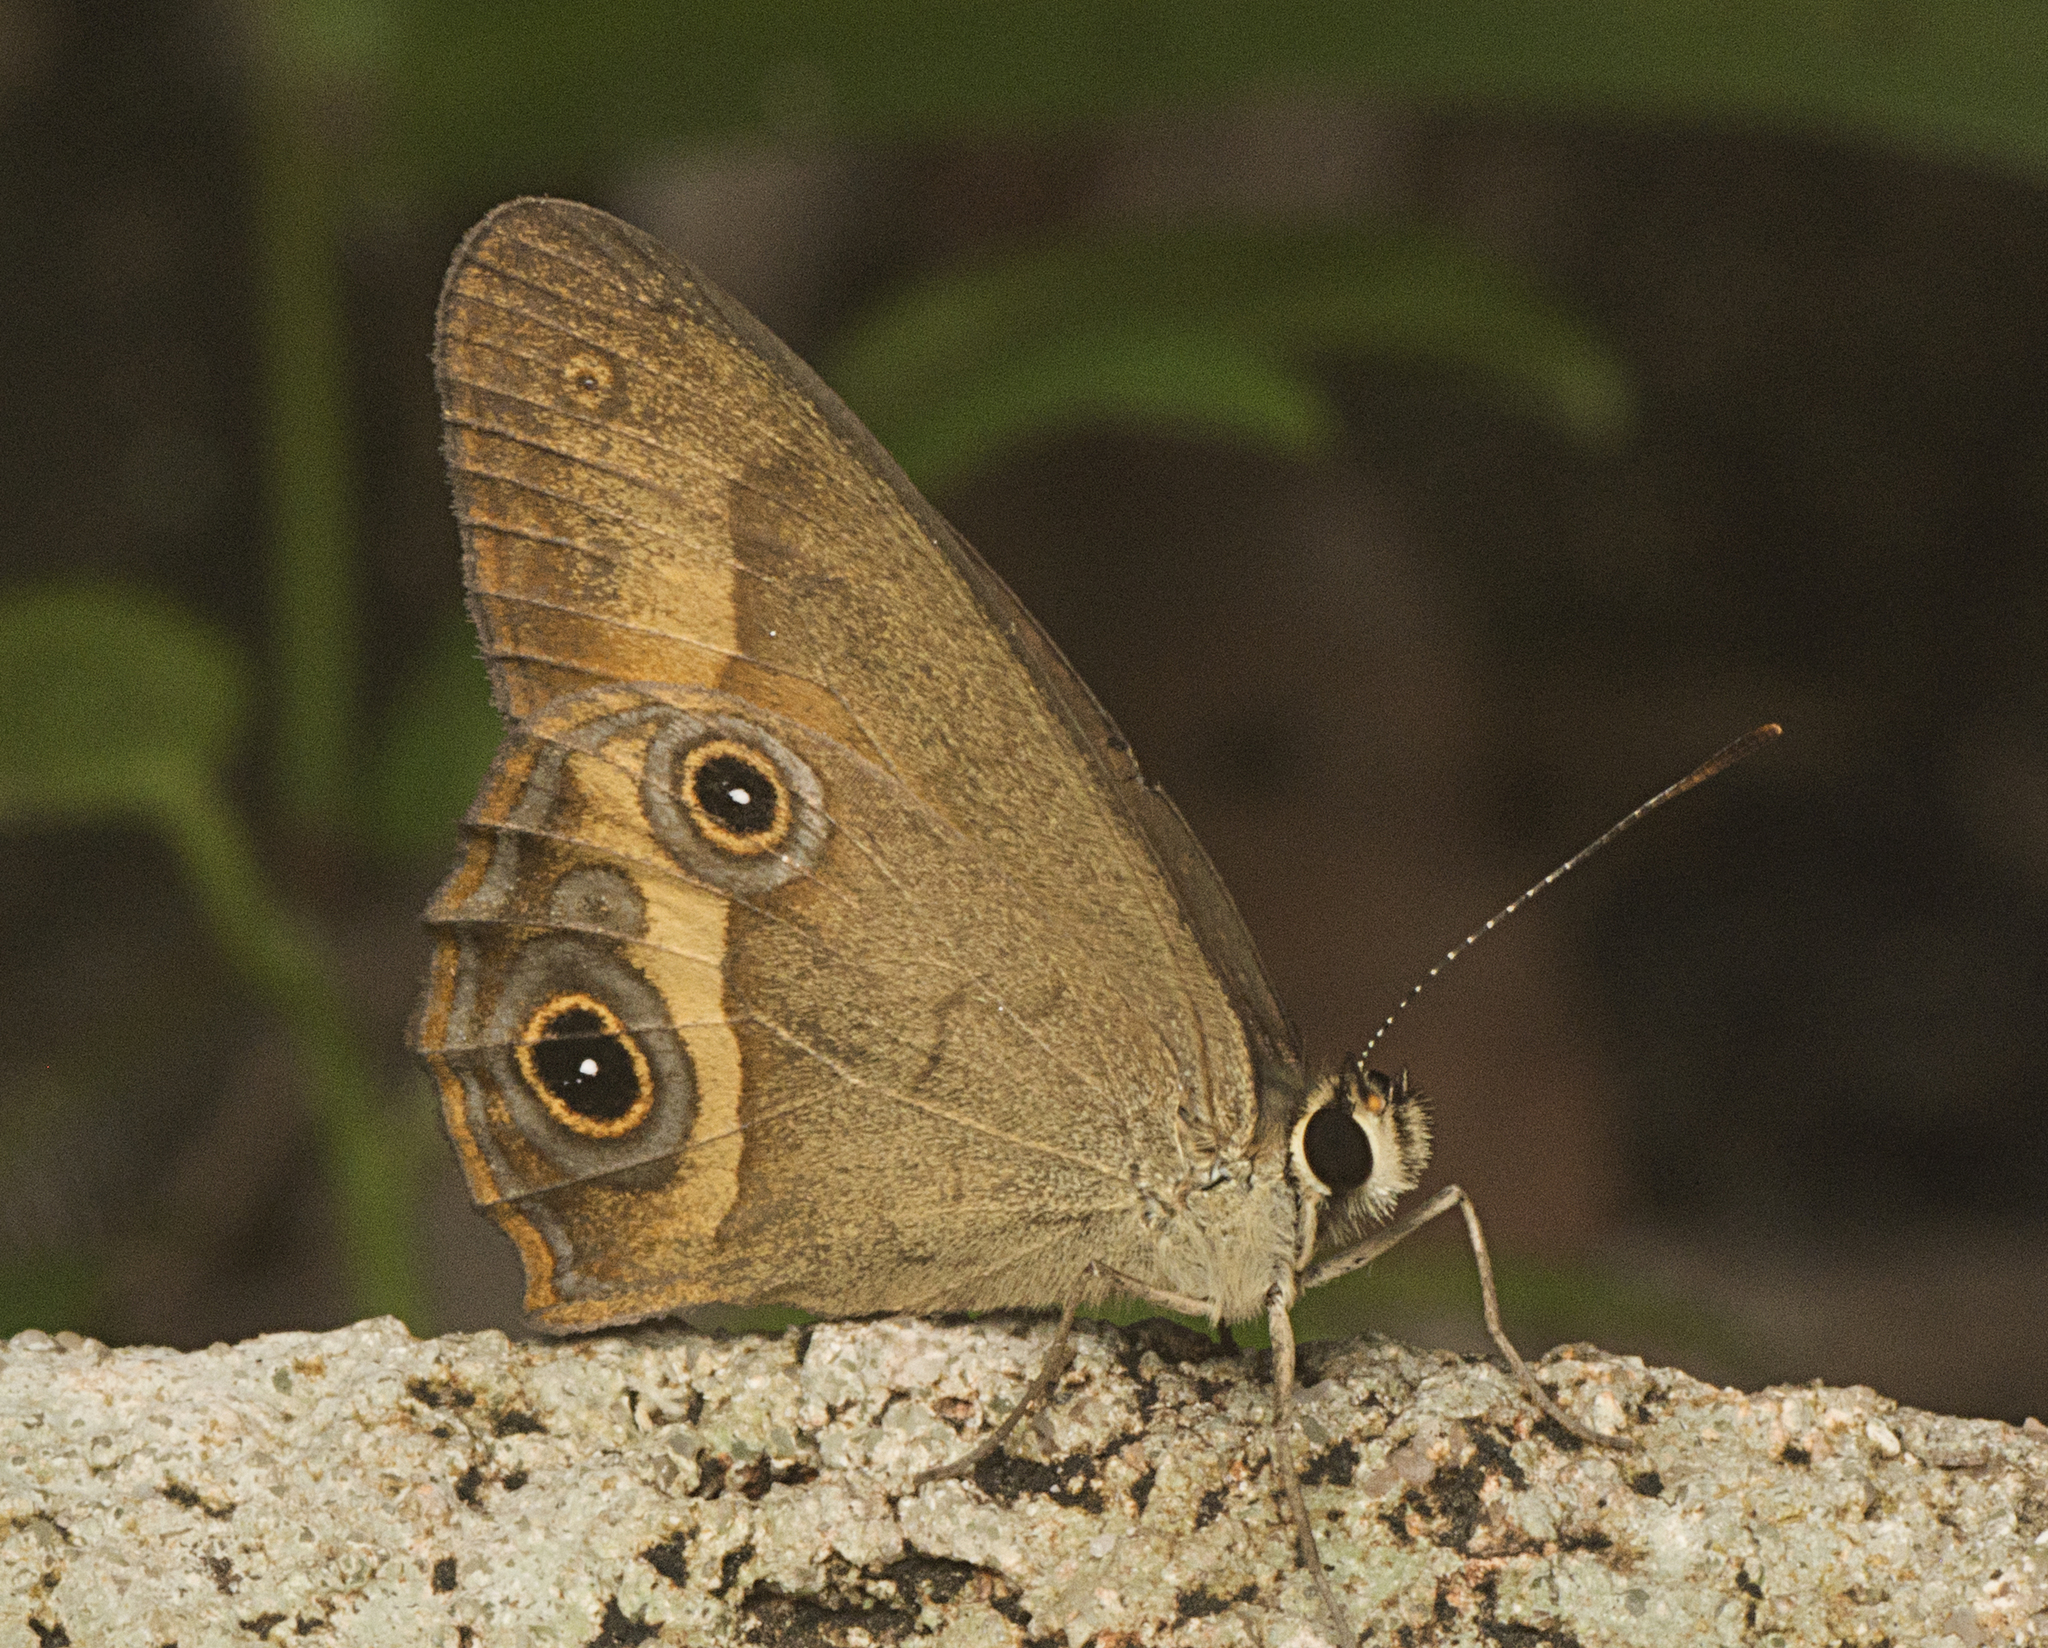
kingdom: Animalia
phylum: Arthropoda
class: Insecta
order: Lepidoptera
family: Nymphalidae
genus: Hypocysta
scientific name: Hypocysta irius
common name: Orange-streaked ringlet
